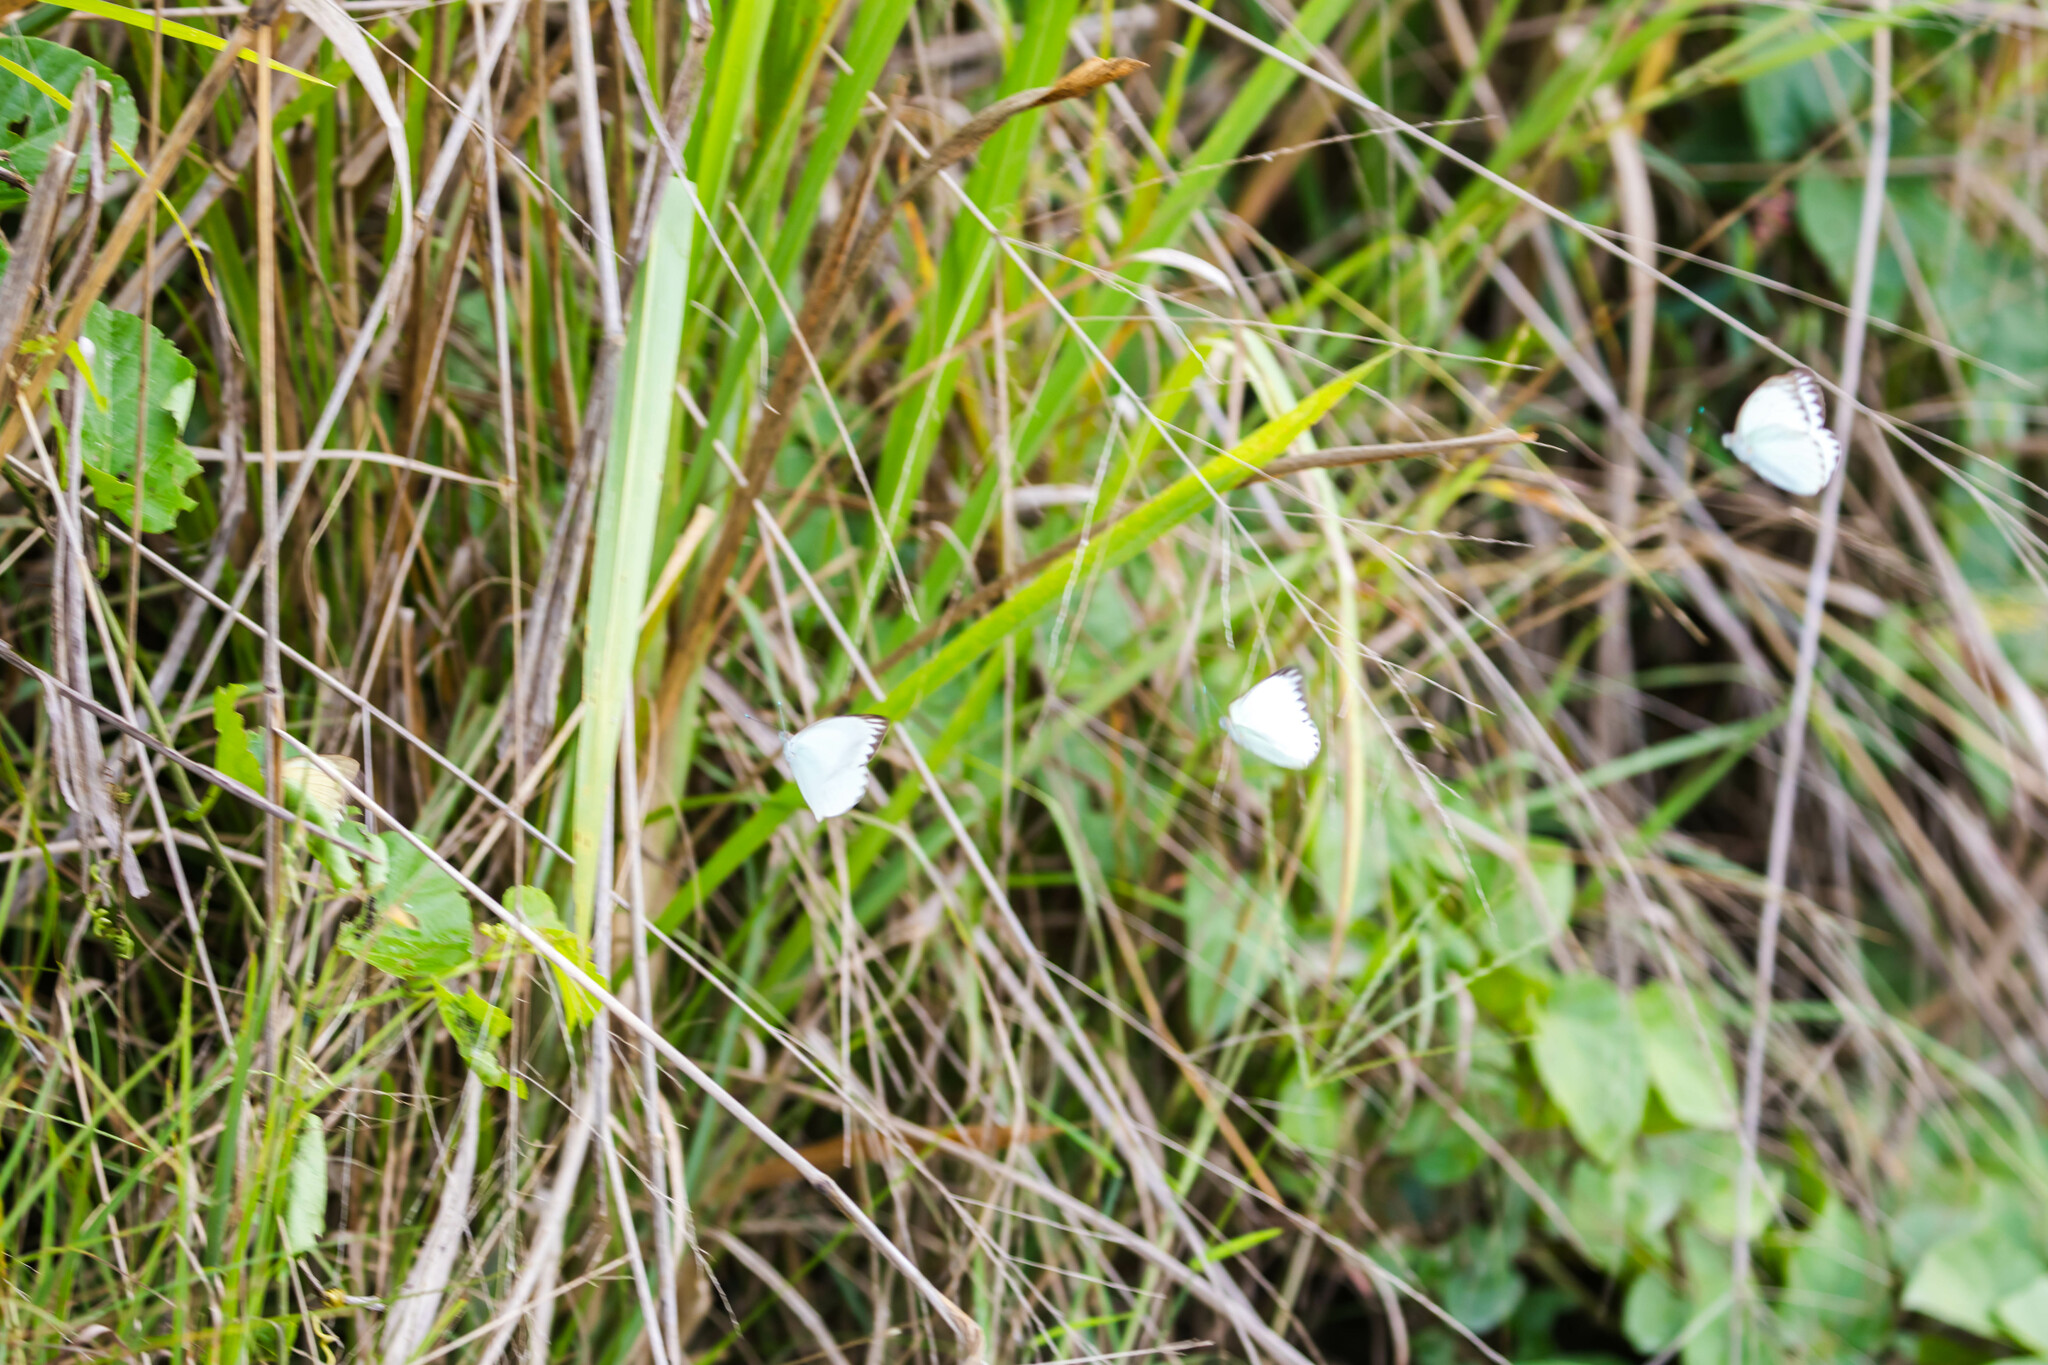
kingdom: Animalia
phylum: Arthropoda
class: Insecta
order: Lepidoptera
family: Pieridae
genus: Ascia
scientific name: Ascia monuste
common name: Great southern white
